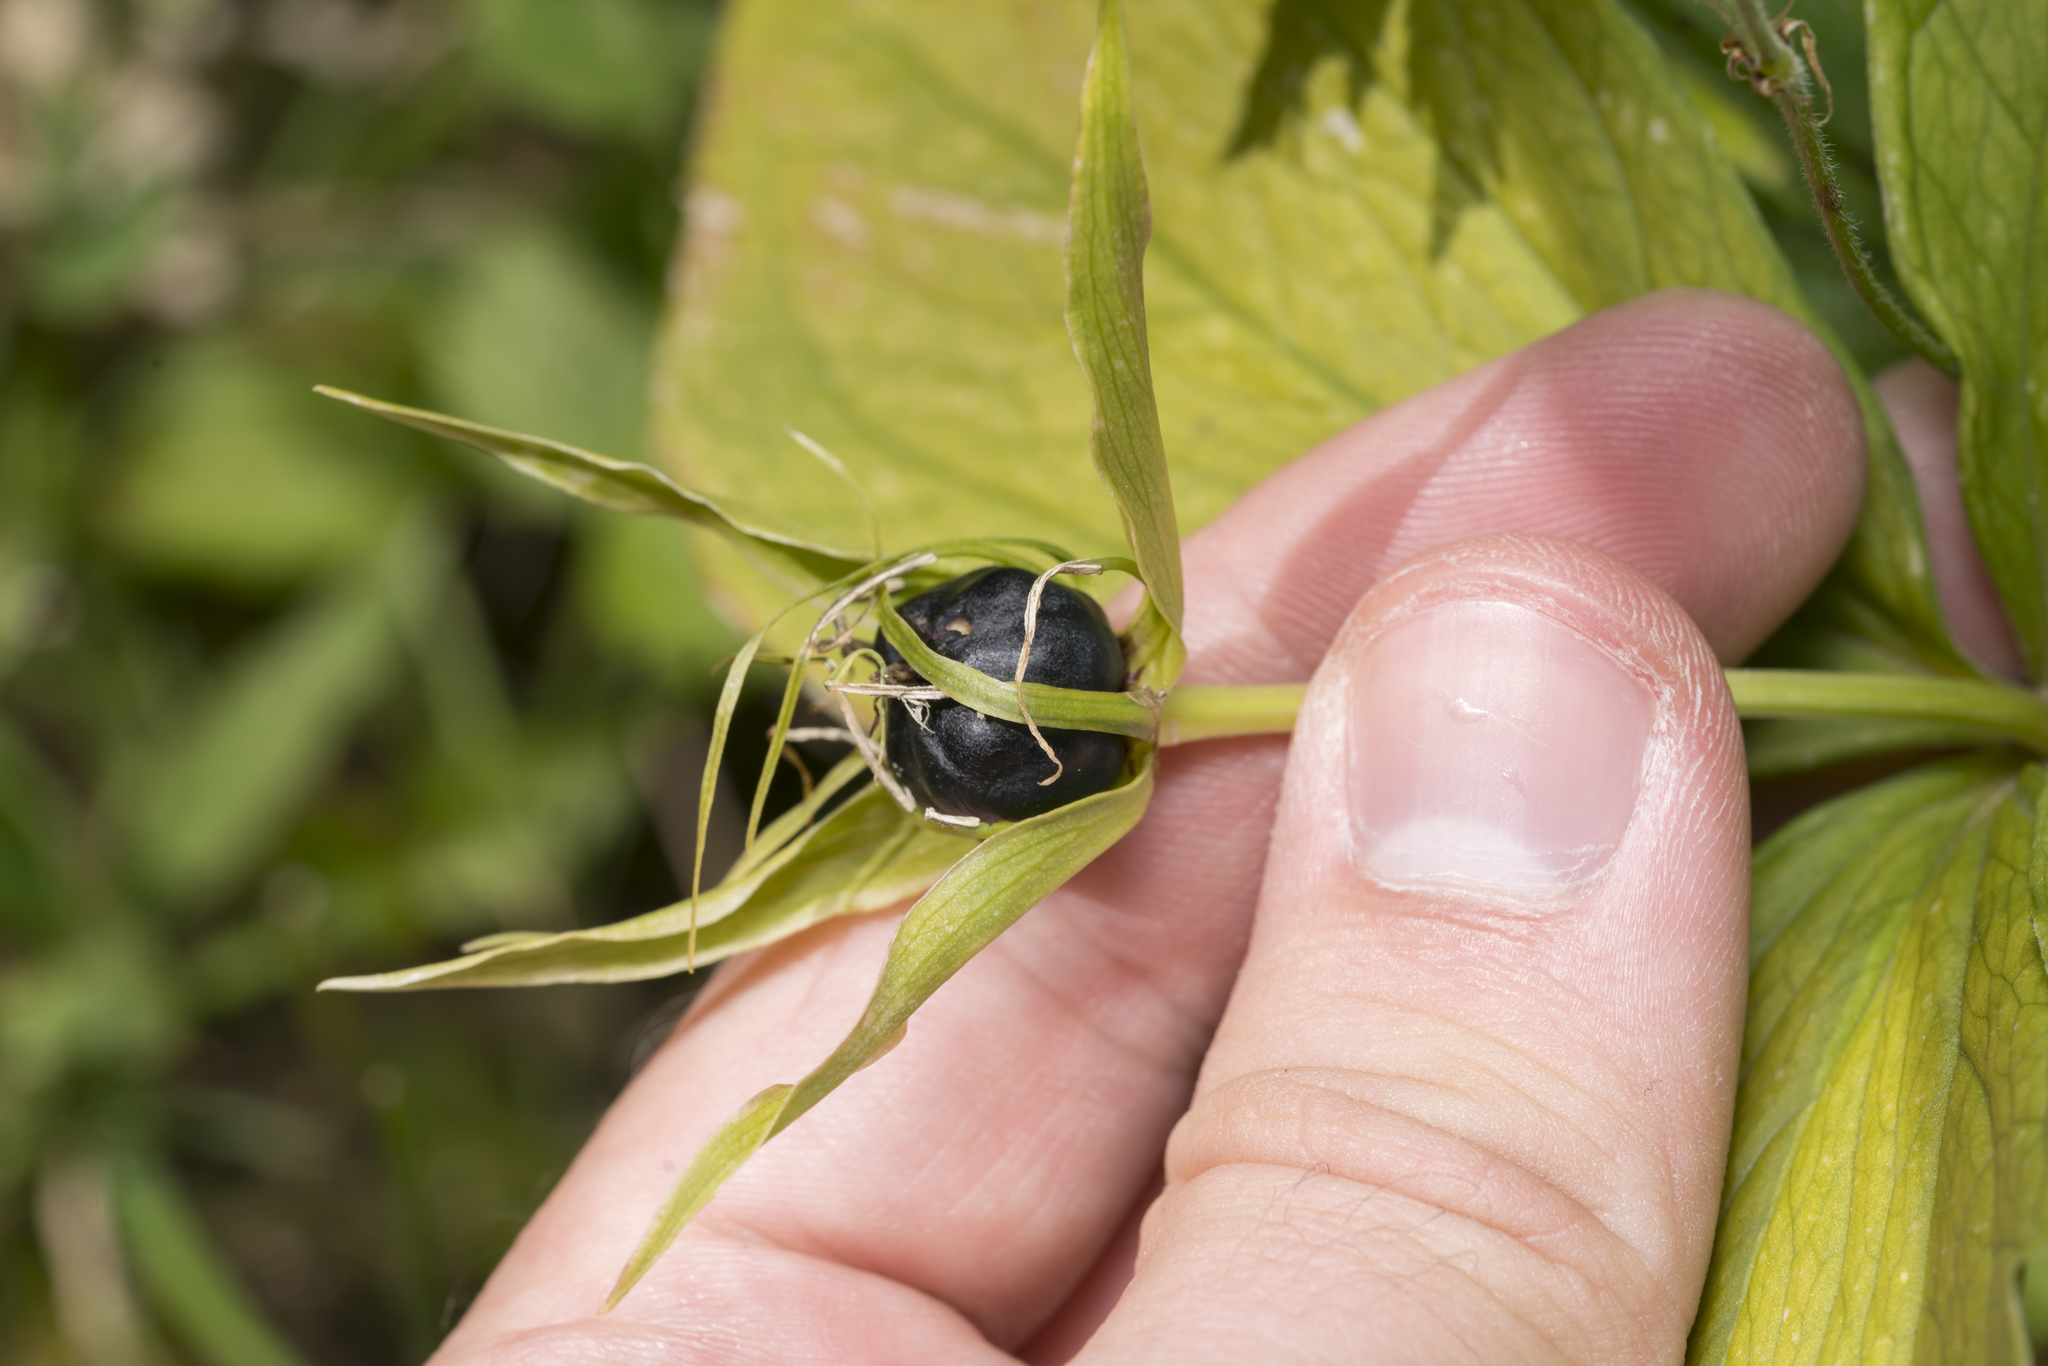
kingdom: Plantae
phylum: Tracheophyta
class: Liliopsida
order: Liliales
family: Melanthiaceae
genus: Paris
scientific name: Paris quadrifolia
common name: Herb-paris
